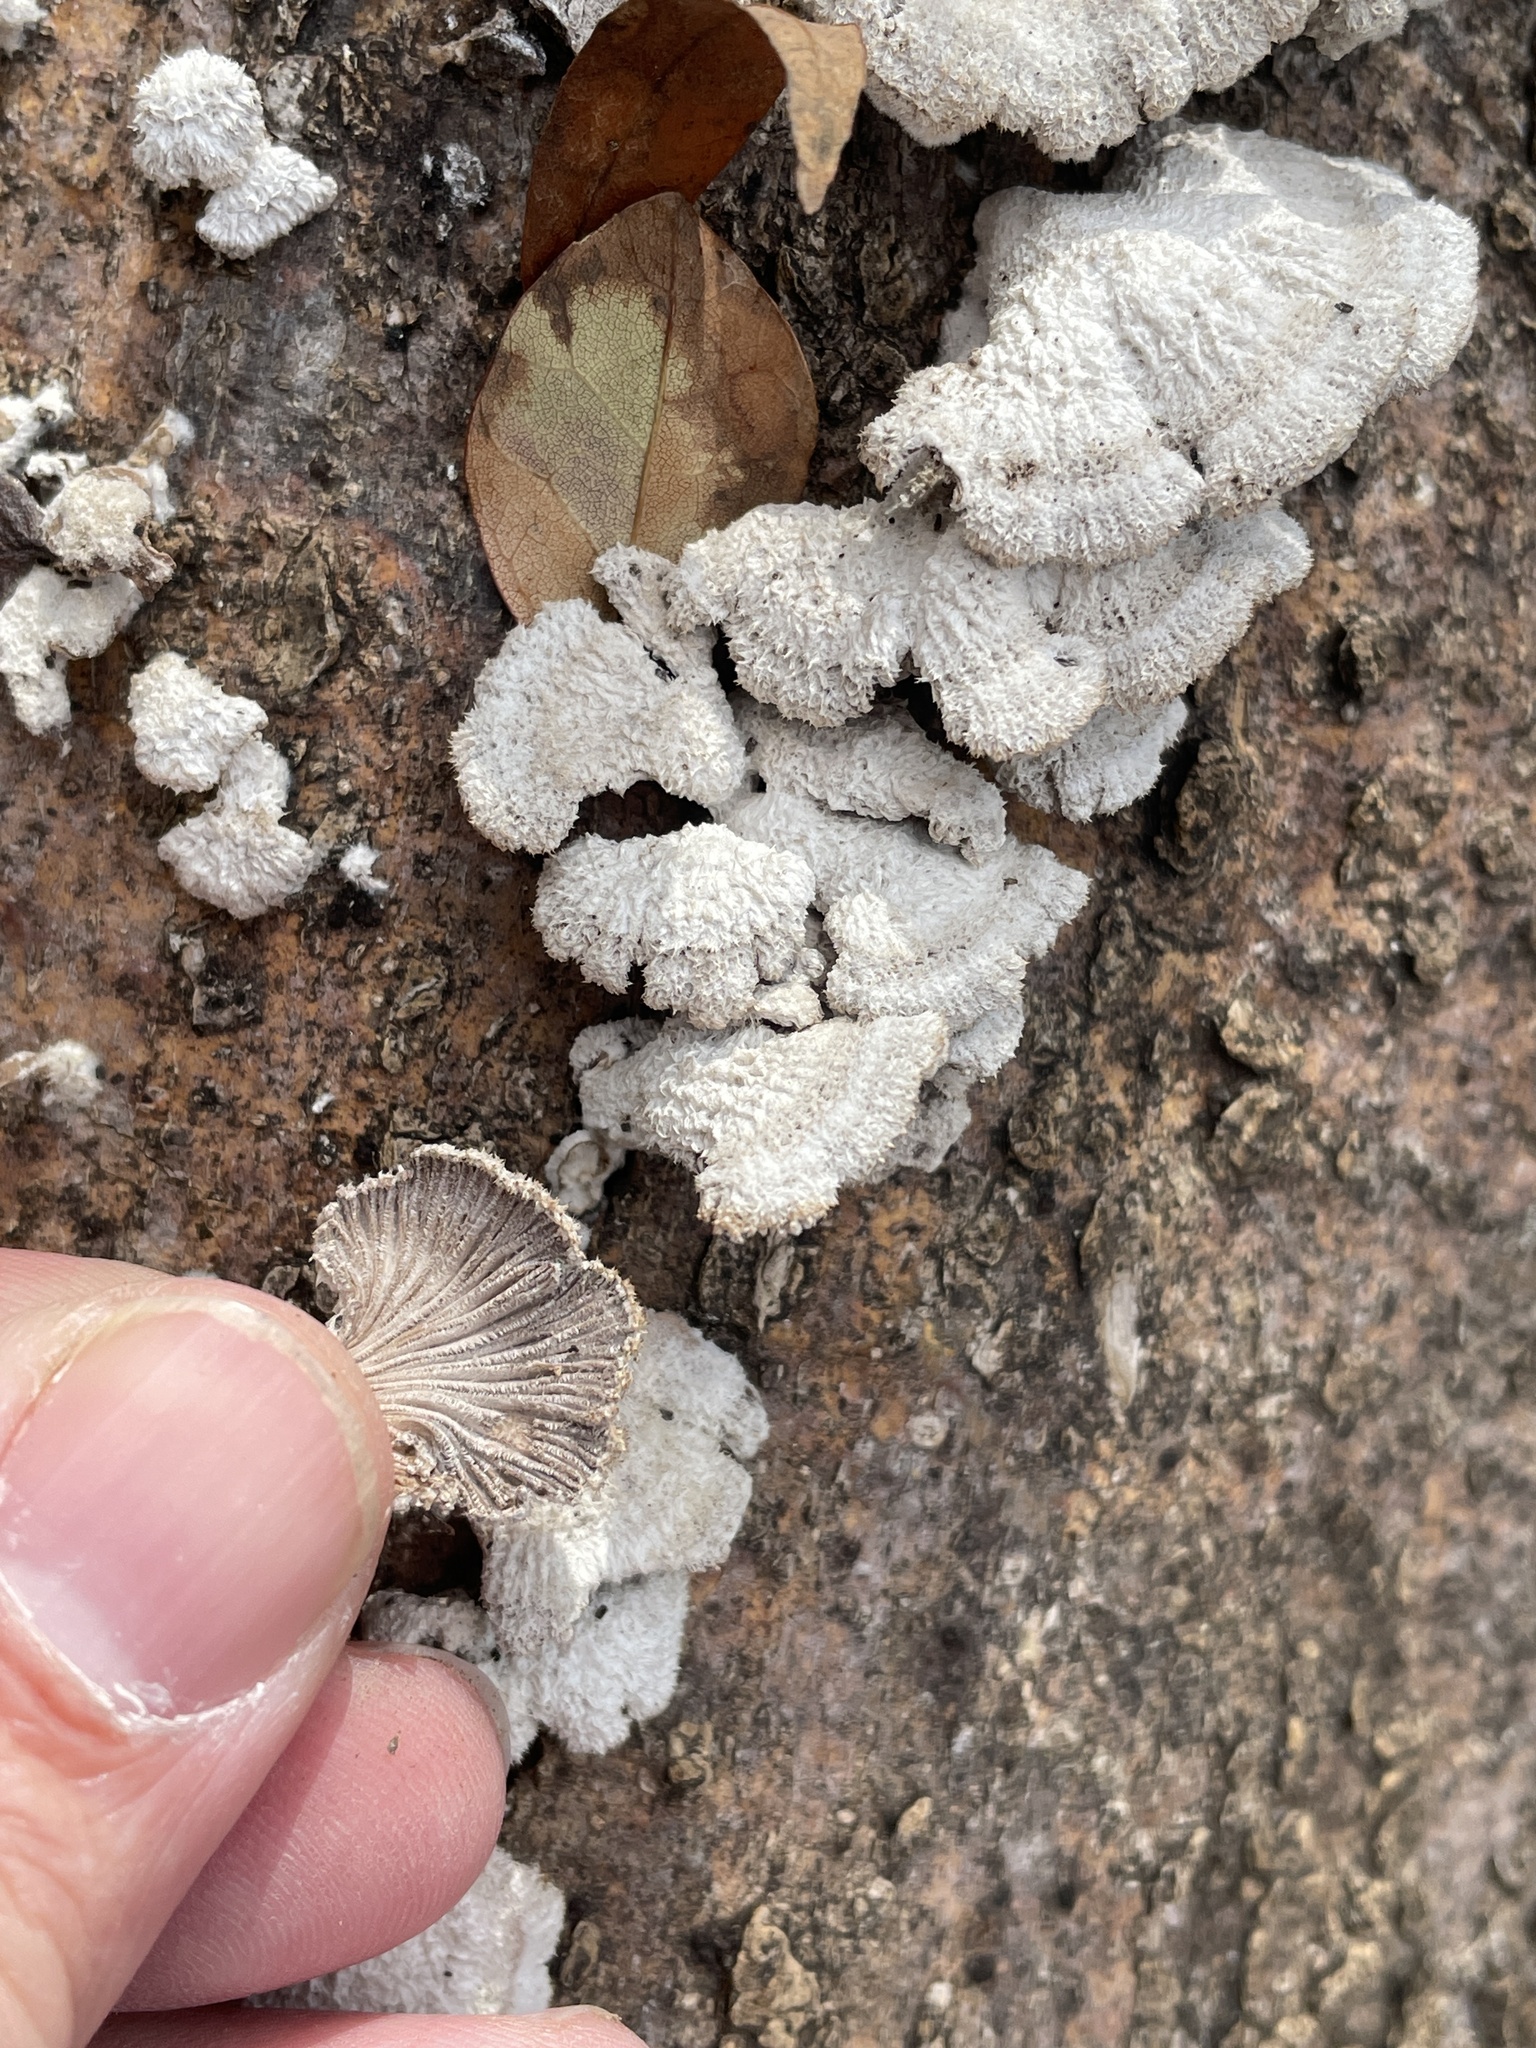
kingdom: Fungi
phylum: Basidiomycota
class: Agaricomycetes
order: Agaricales
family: Schizophyllaceae
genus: Schizophyllum
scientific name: Schizophyllum commune
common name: Common porecrust
